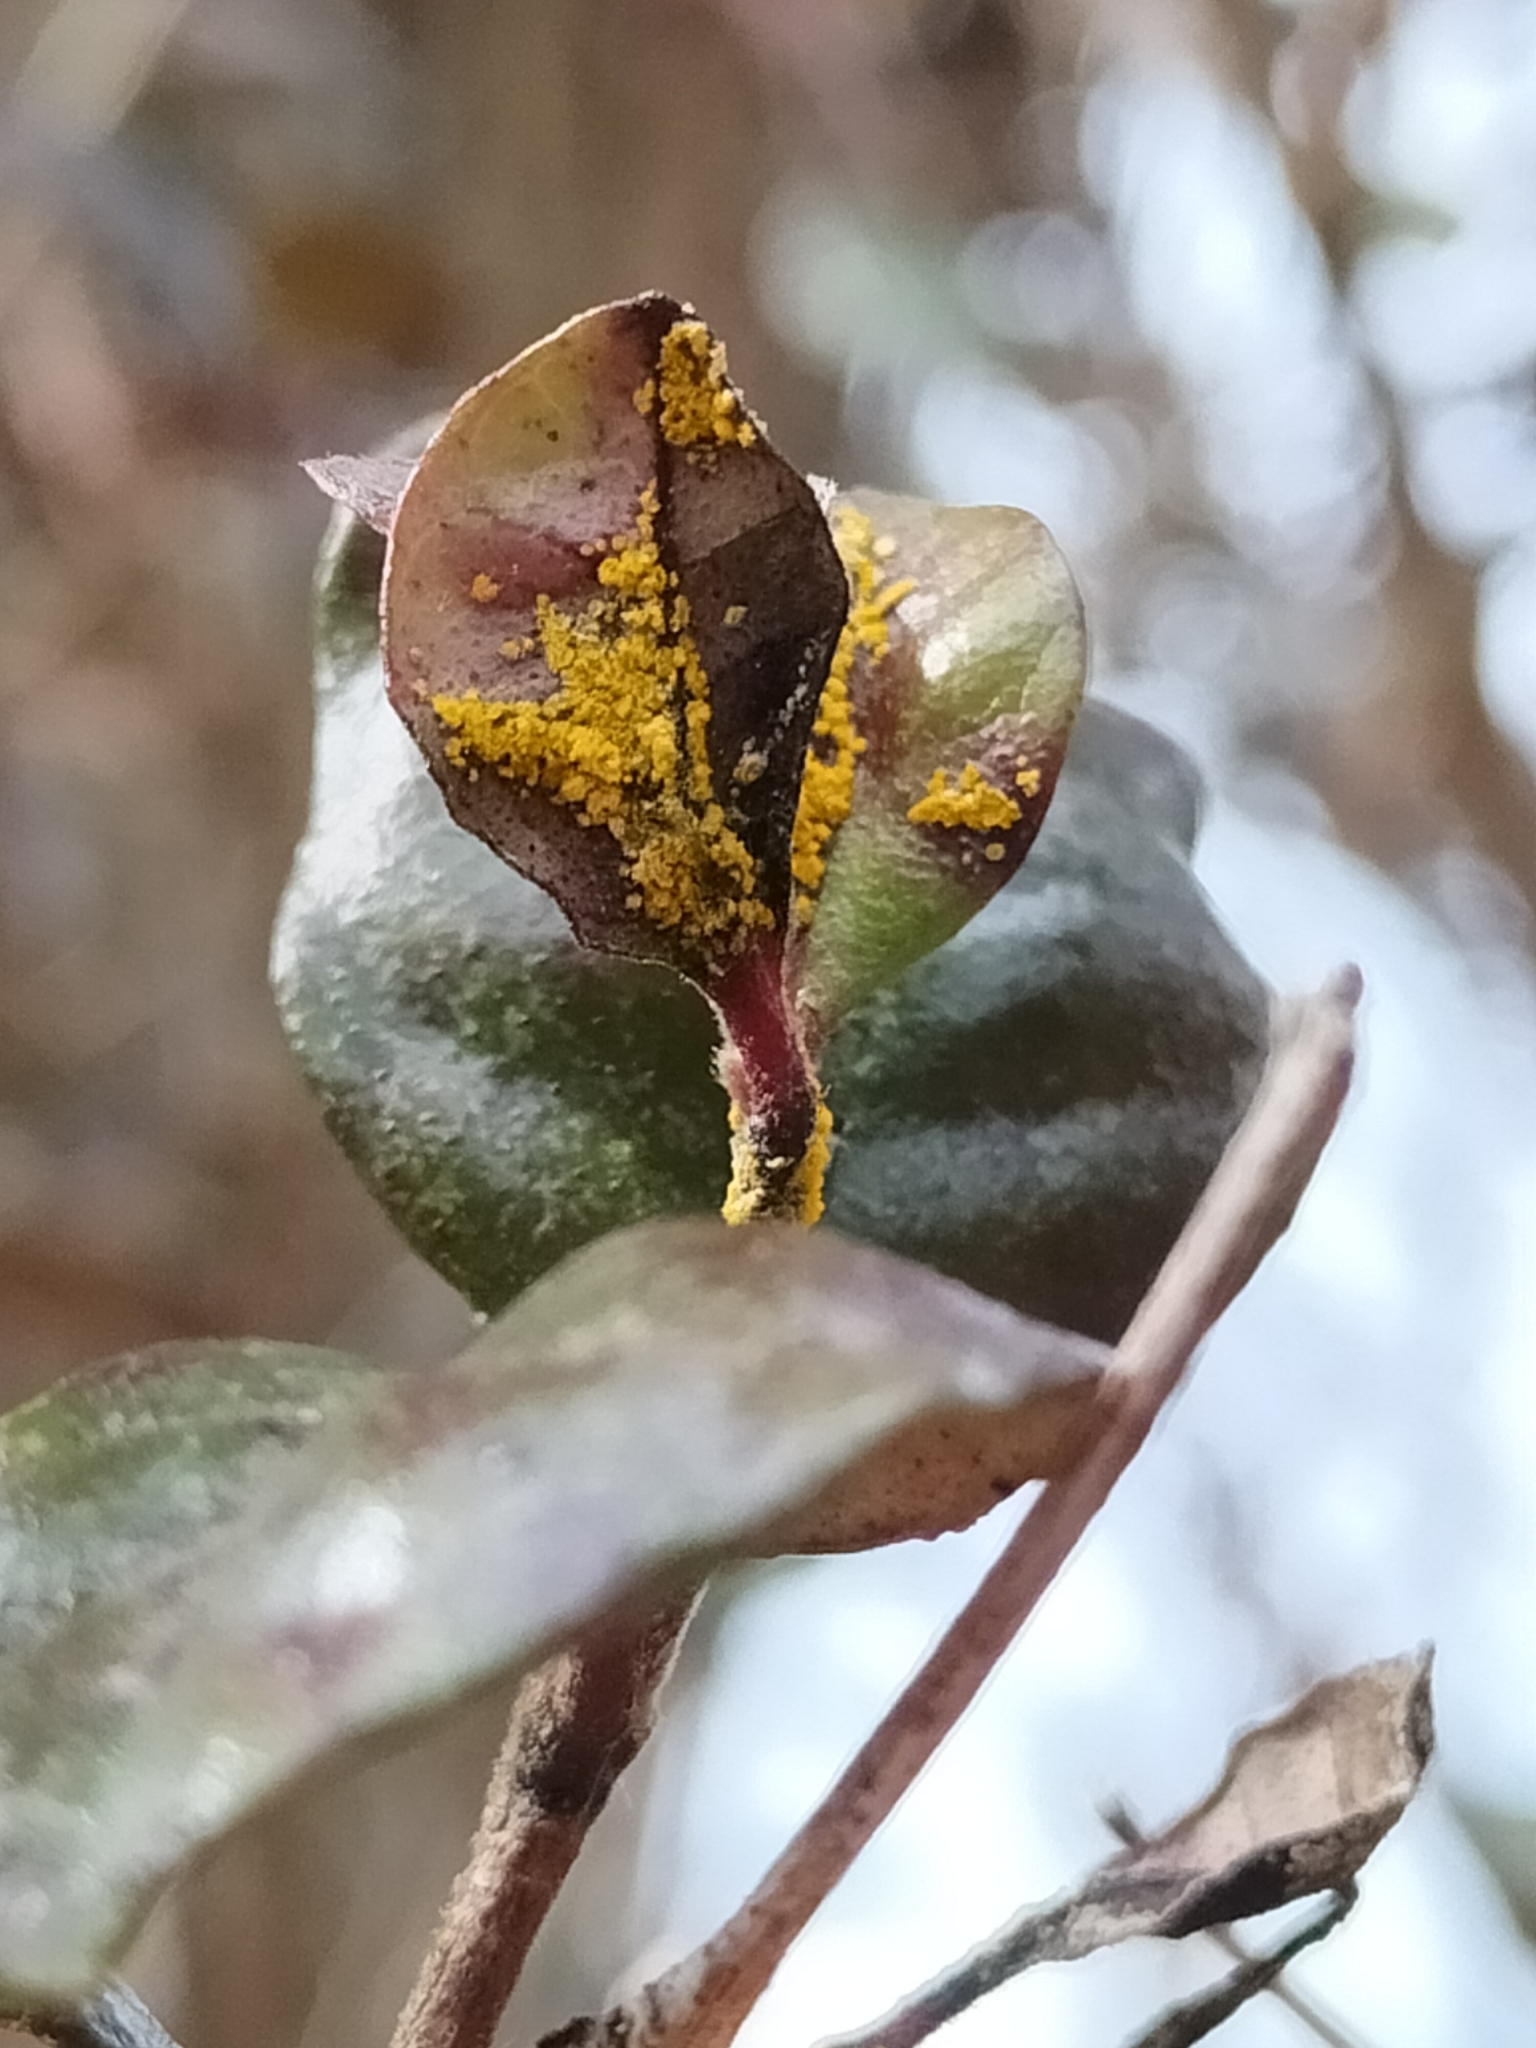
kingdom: Fungi
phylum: Basidiomycota
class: Pucciniomycetes
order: Pucciniales
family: Sphaerophragmiaceae
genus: Austropuccinia
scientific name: Austropuccinia psidii
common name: Myrtle rust
